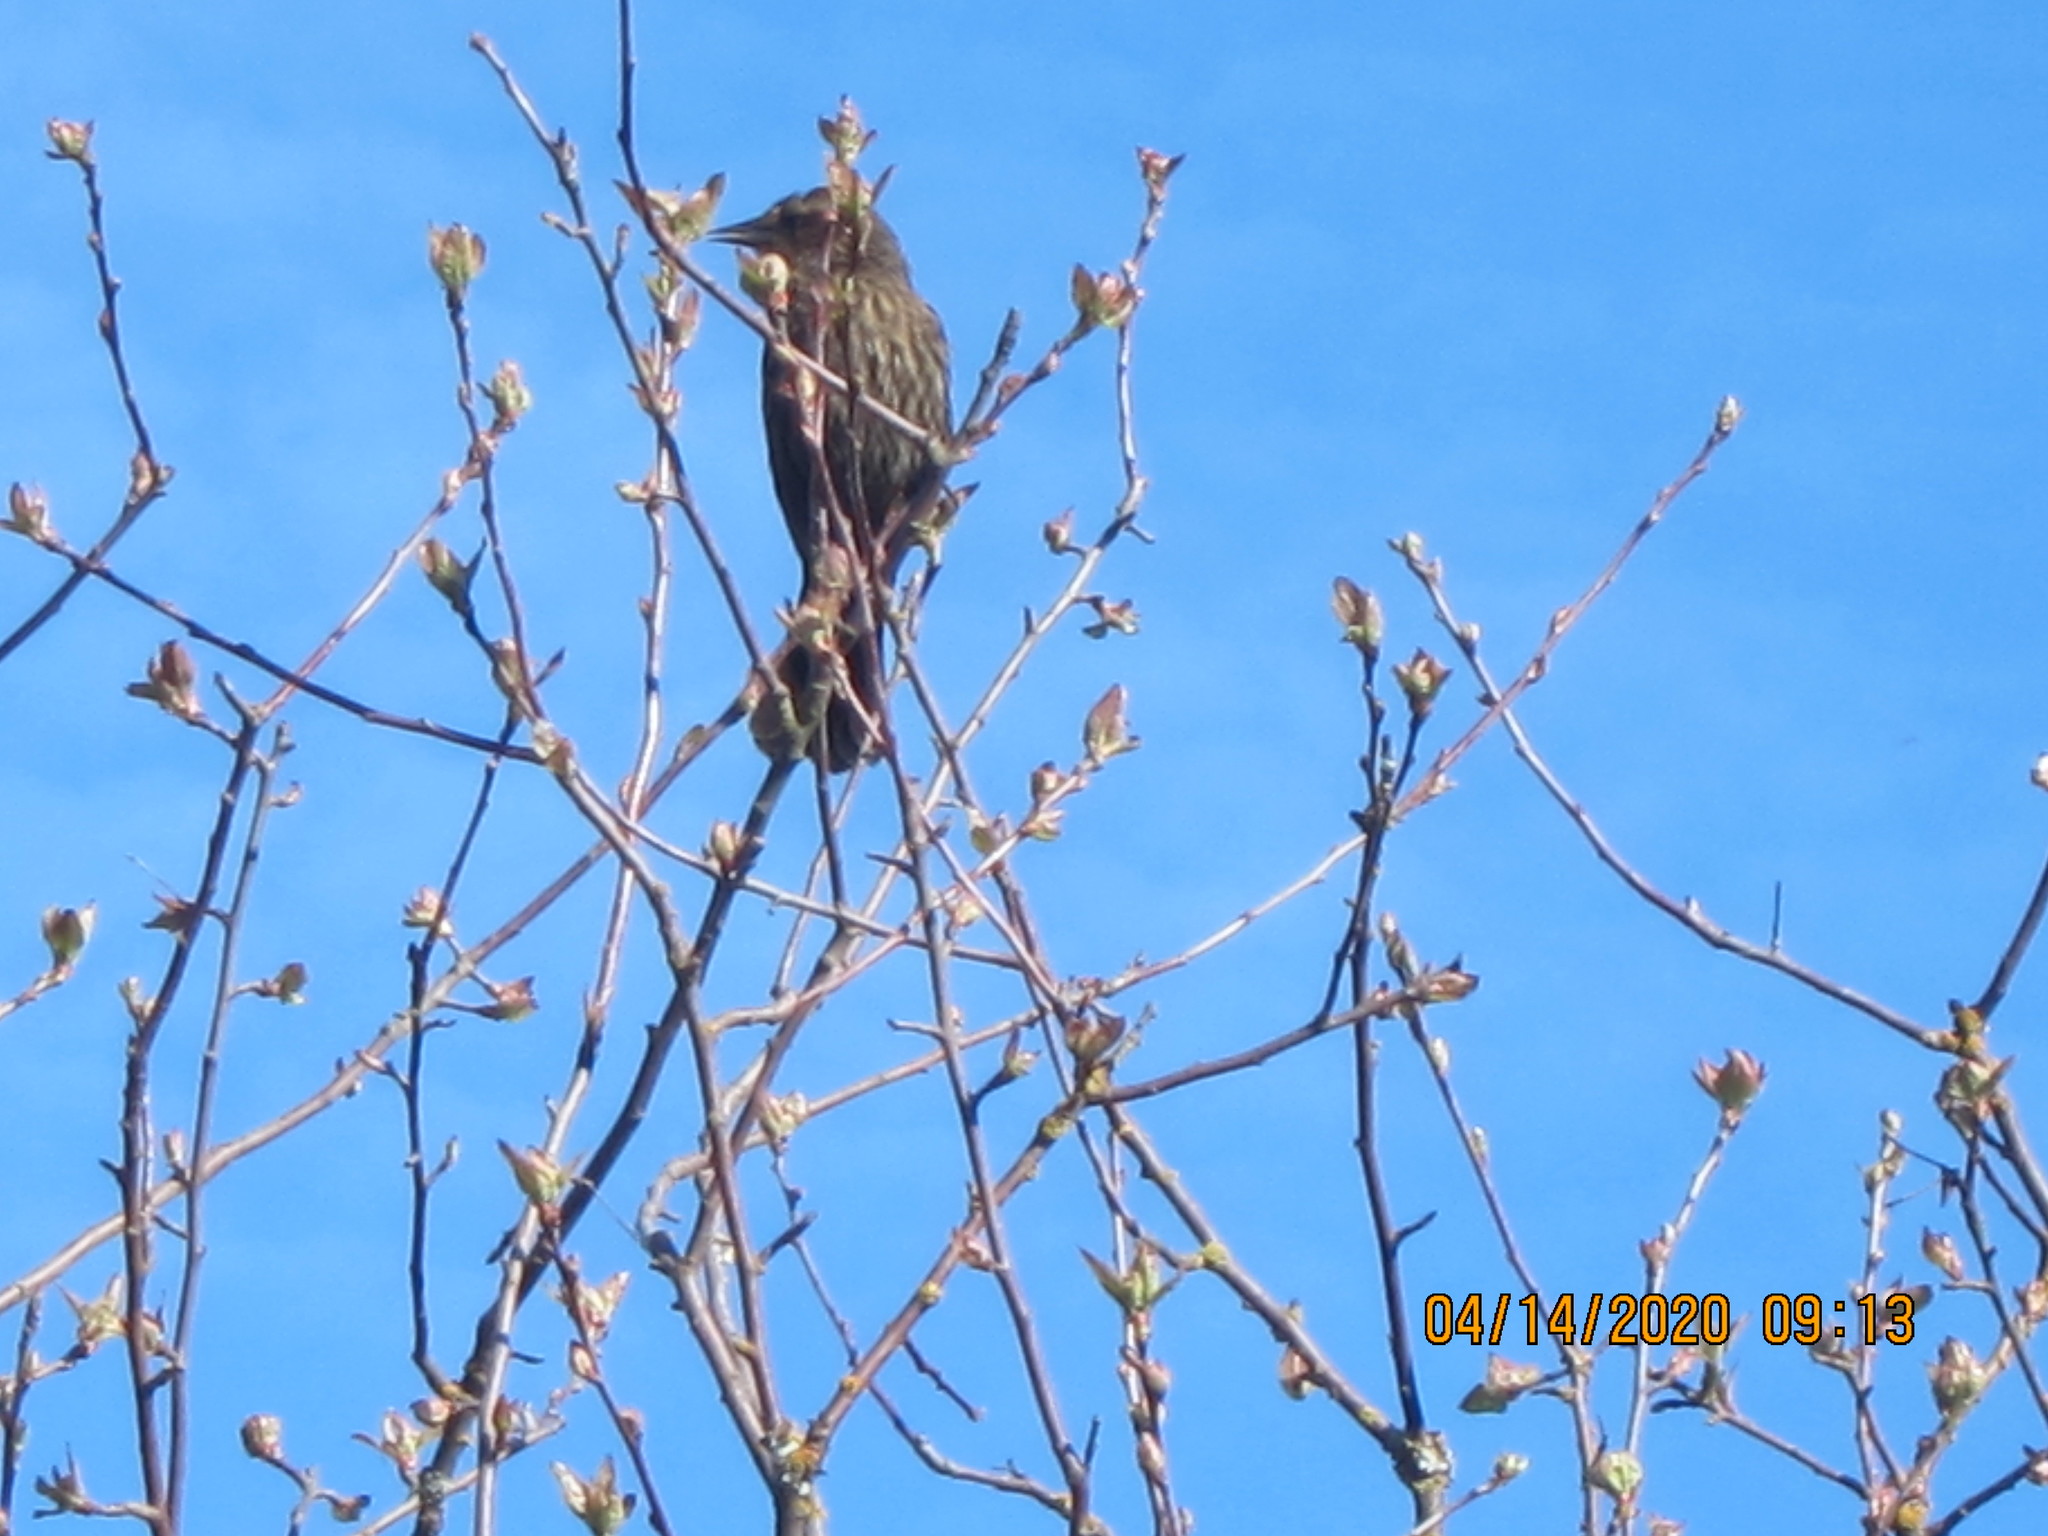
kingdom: Animalia
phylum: Chordata
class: Aves
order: Passeriformes
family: Icteridae
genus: Agelaius
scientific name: Agelaius phoeniceus
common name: Red-winged blackbird
